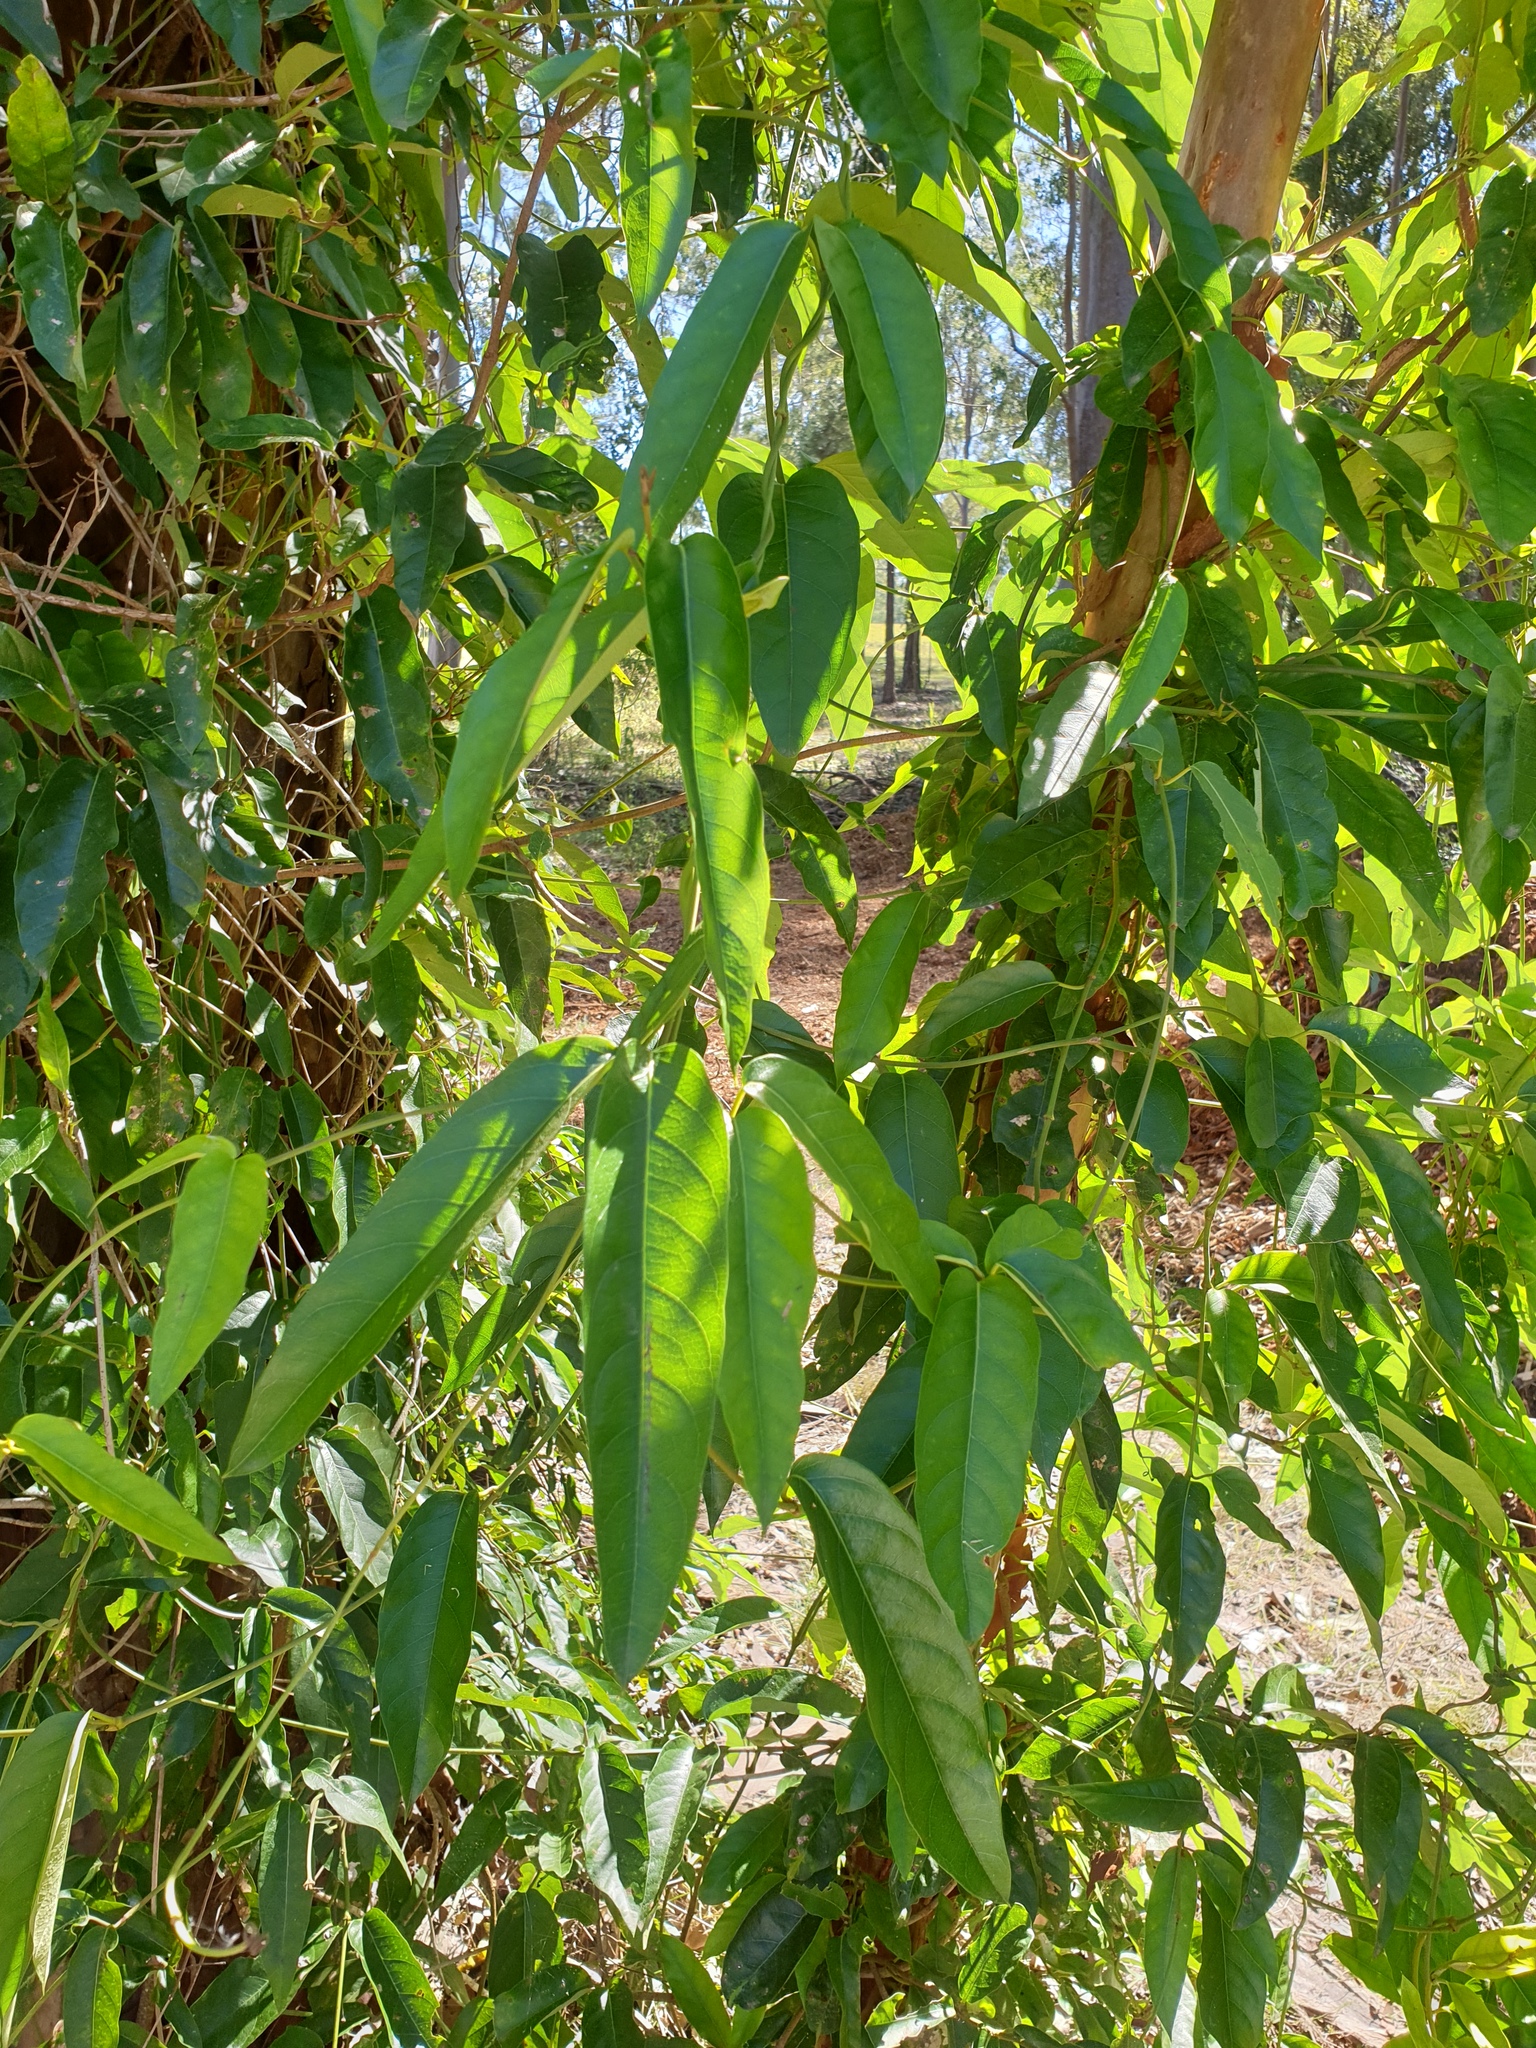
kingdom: Plantae
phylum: Tracheophyta
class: Magnoliopsida
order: Gentianales
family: Apocynaceae
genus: Parsonsia
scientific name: Parsonsia straminea
